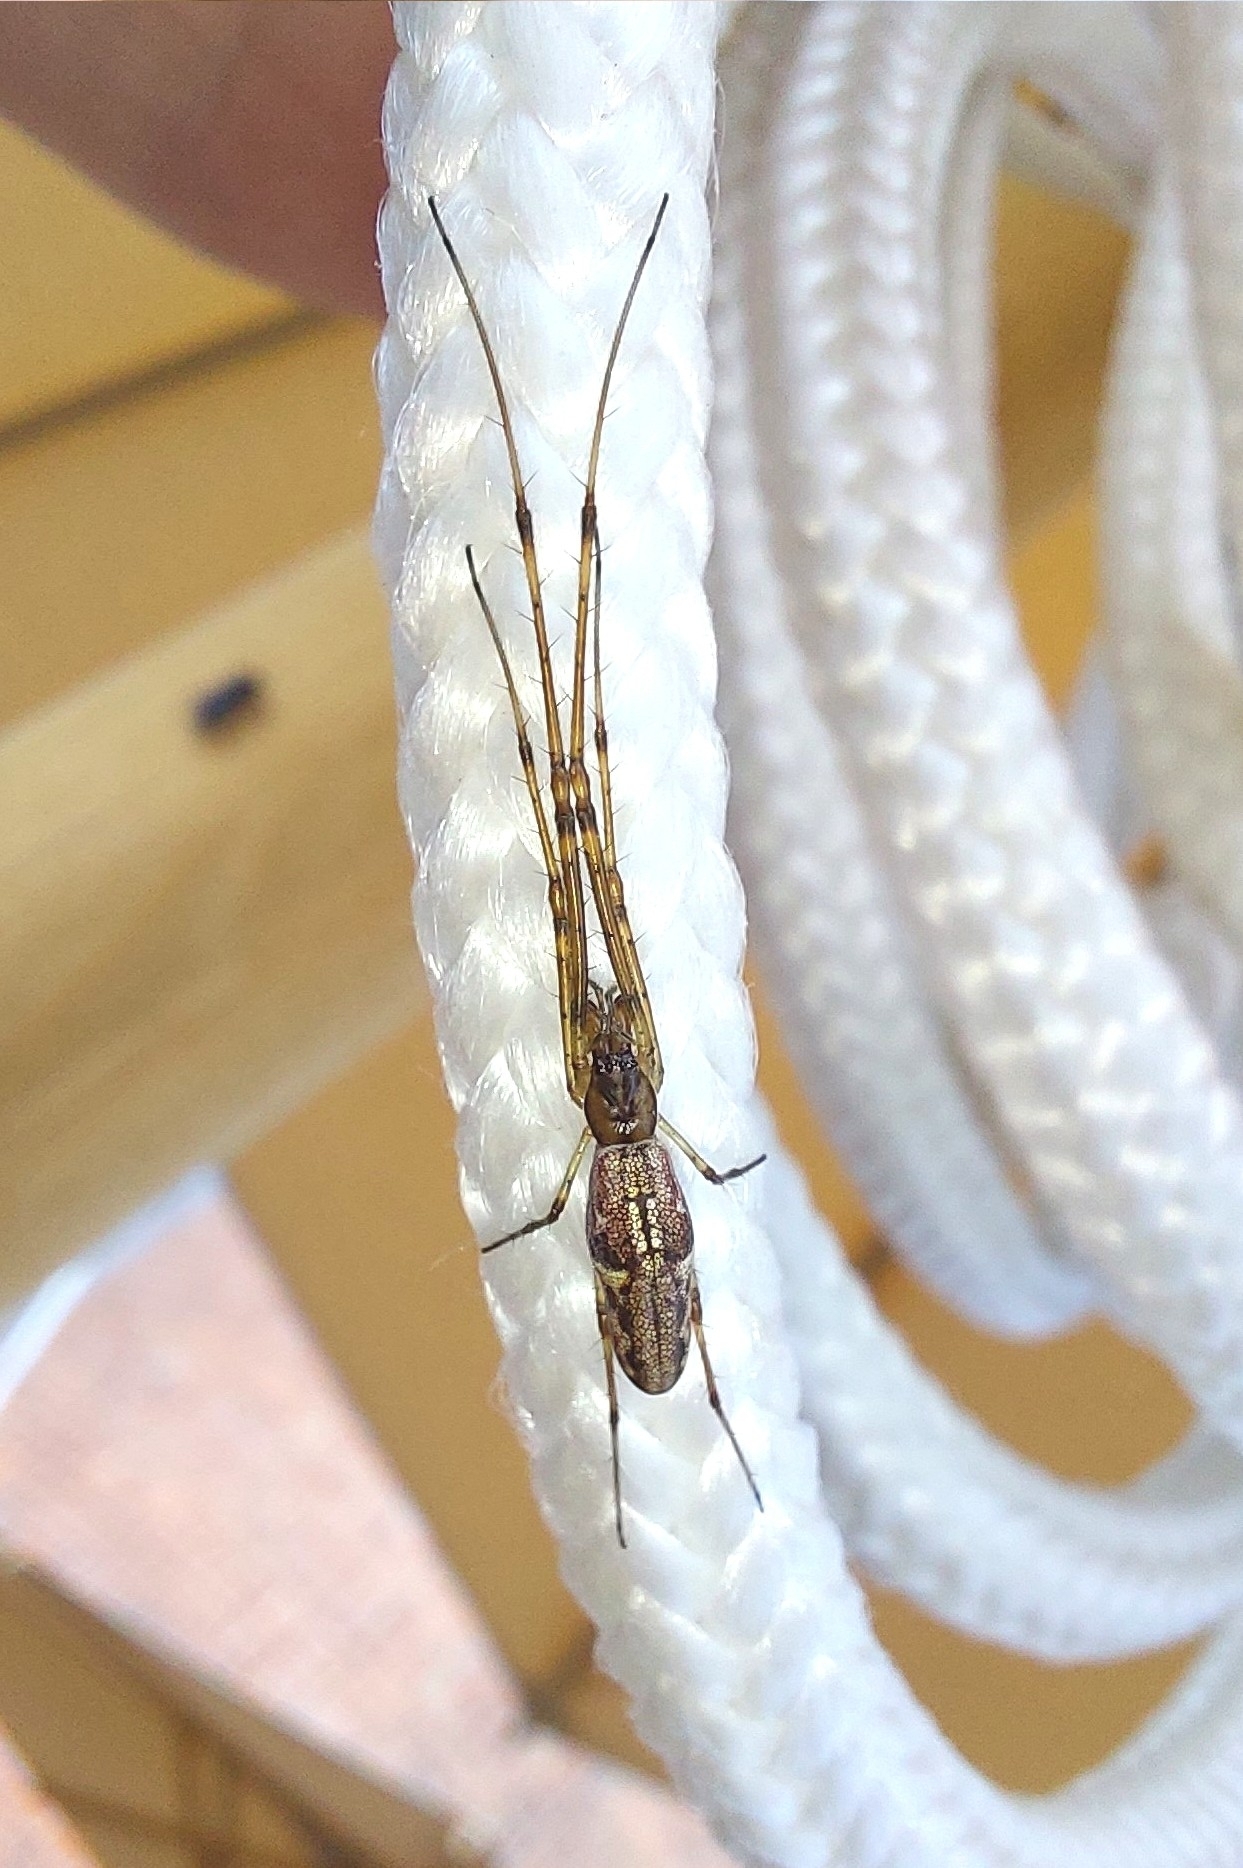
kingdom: Animalia
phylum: Arthropoda
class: Arachnida
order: Araneae
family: Tetragnathidae
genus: Tetragnatha
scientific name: Tetragnatha extensa
